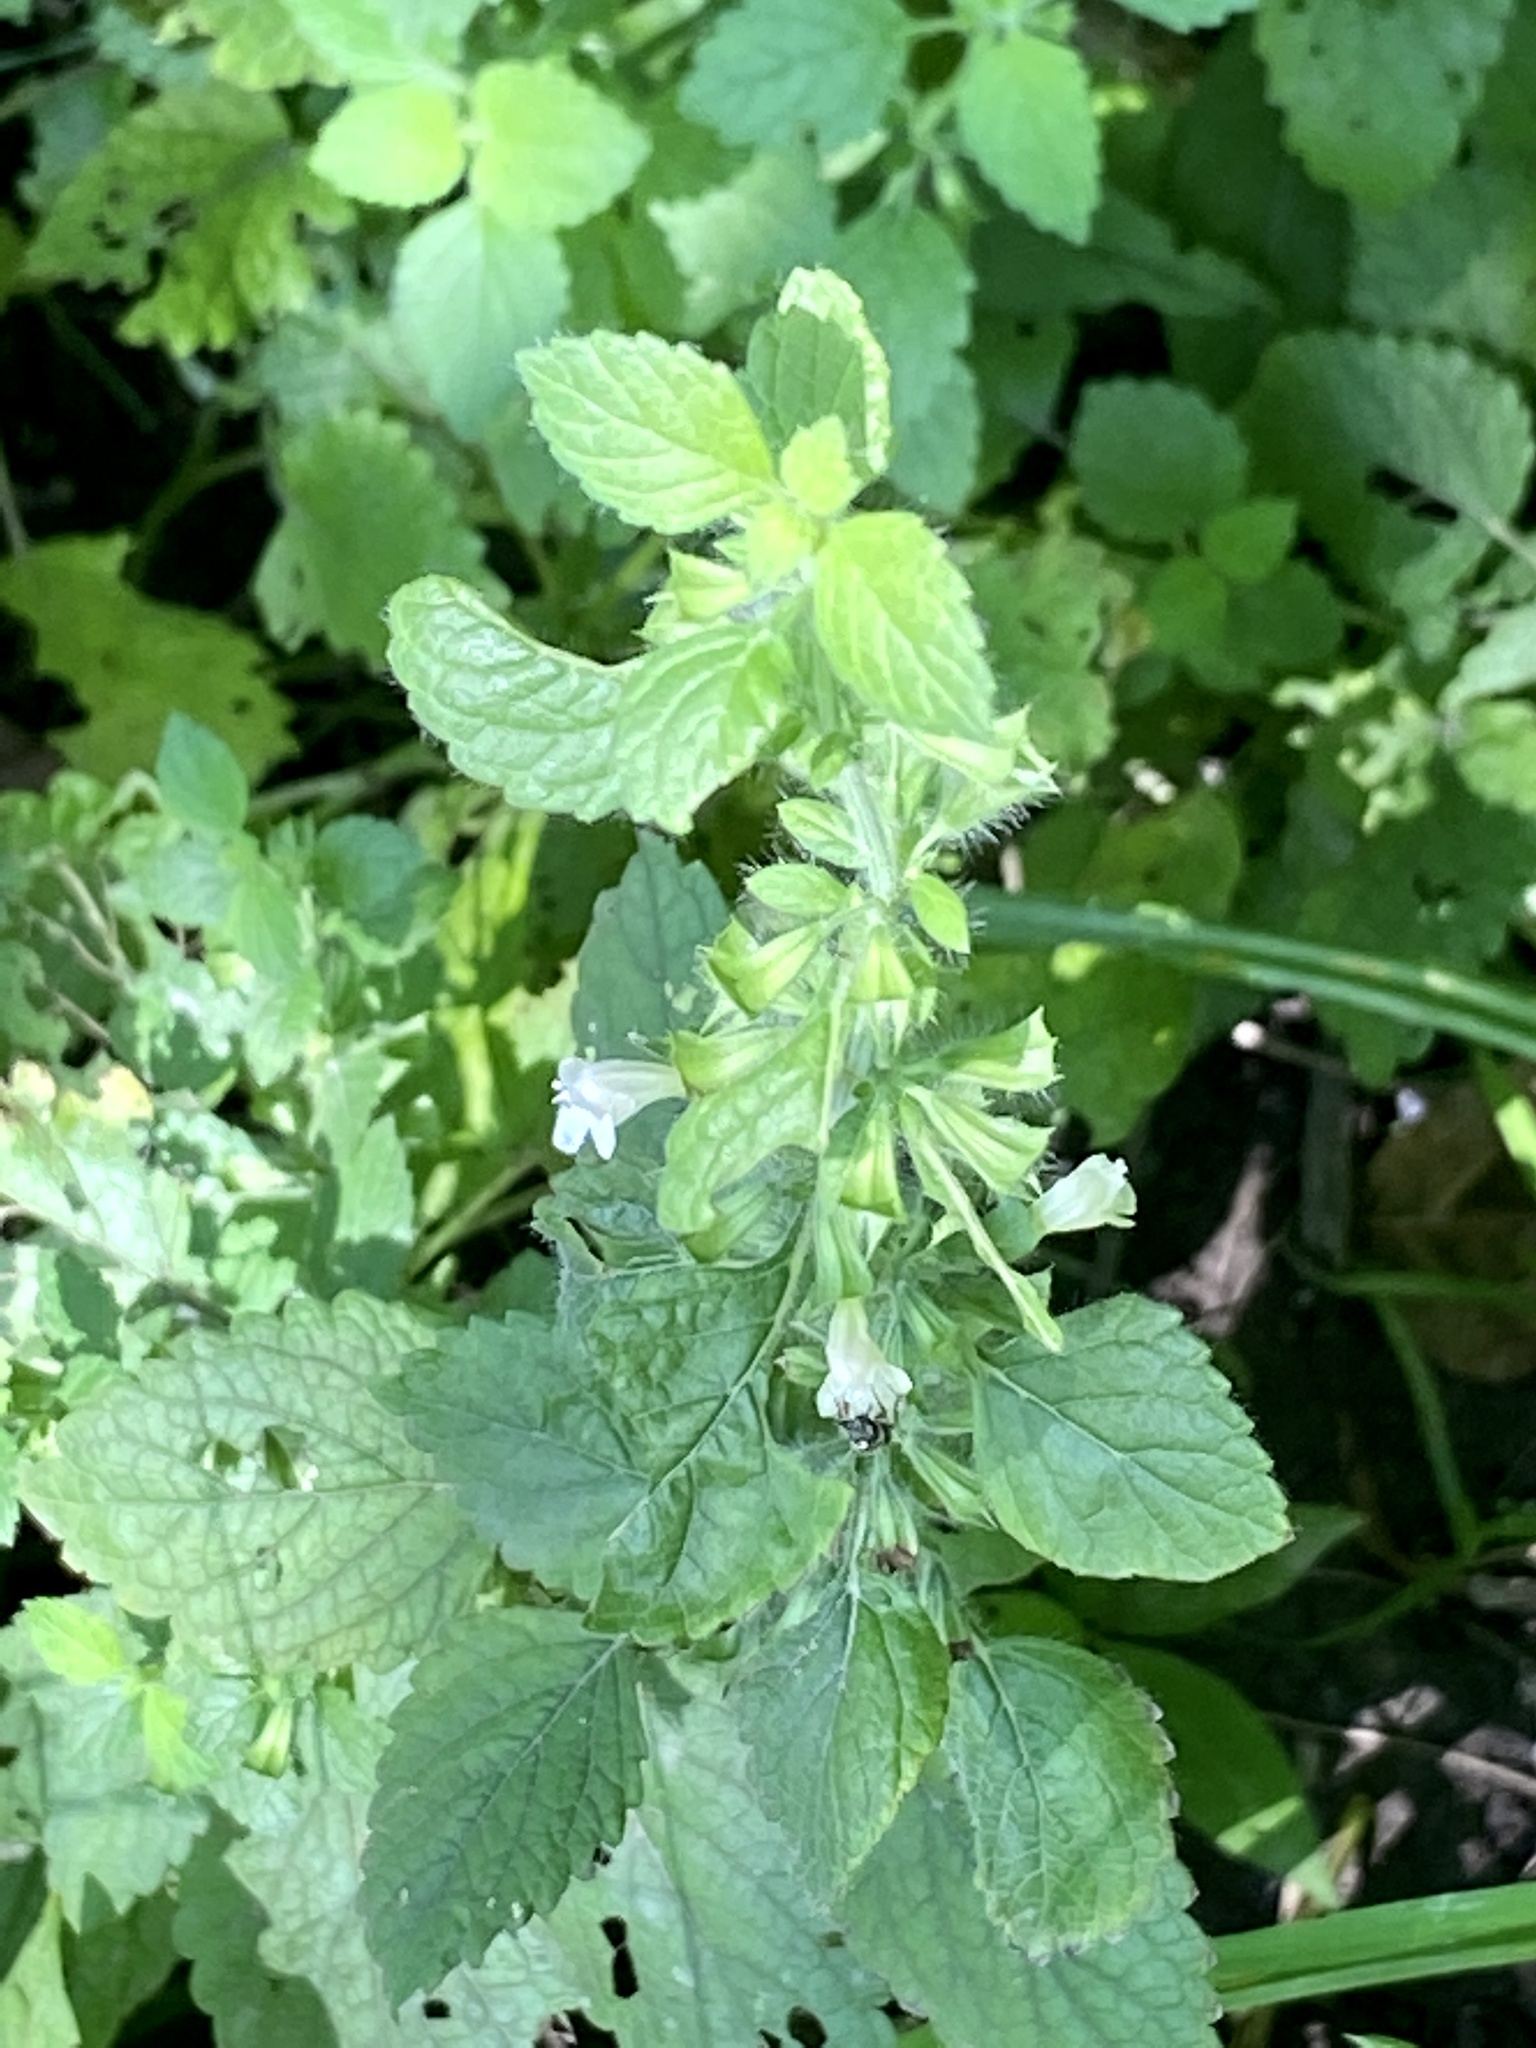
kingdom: Plantae
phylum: Tracheophyta
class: Magnoliopsida
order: Lamiales
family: Lamiaceae
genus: Melissa
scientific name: Melissa officinalis
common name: Balm
